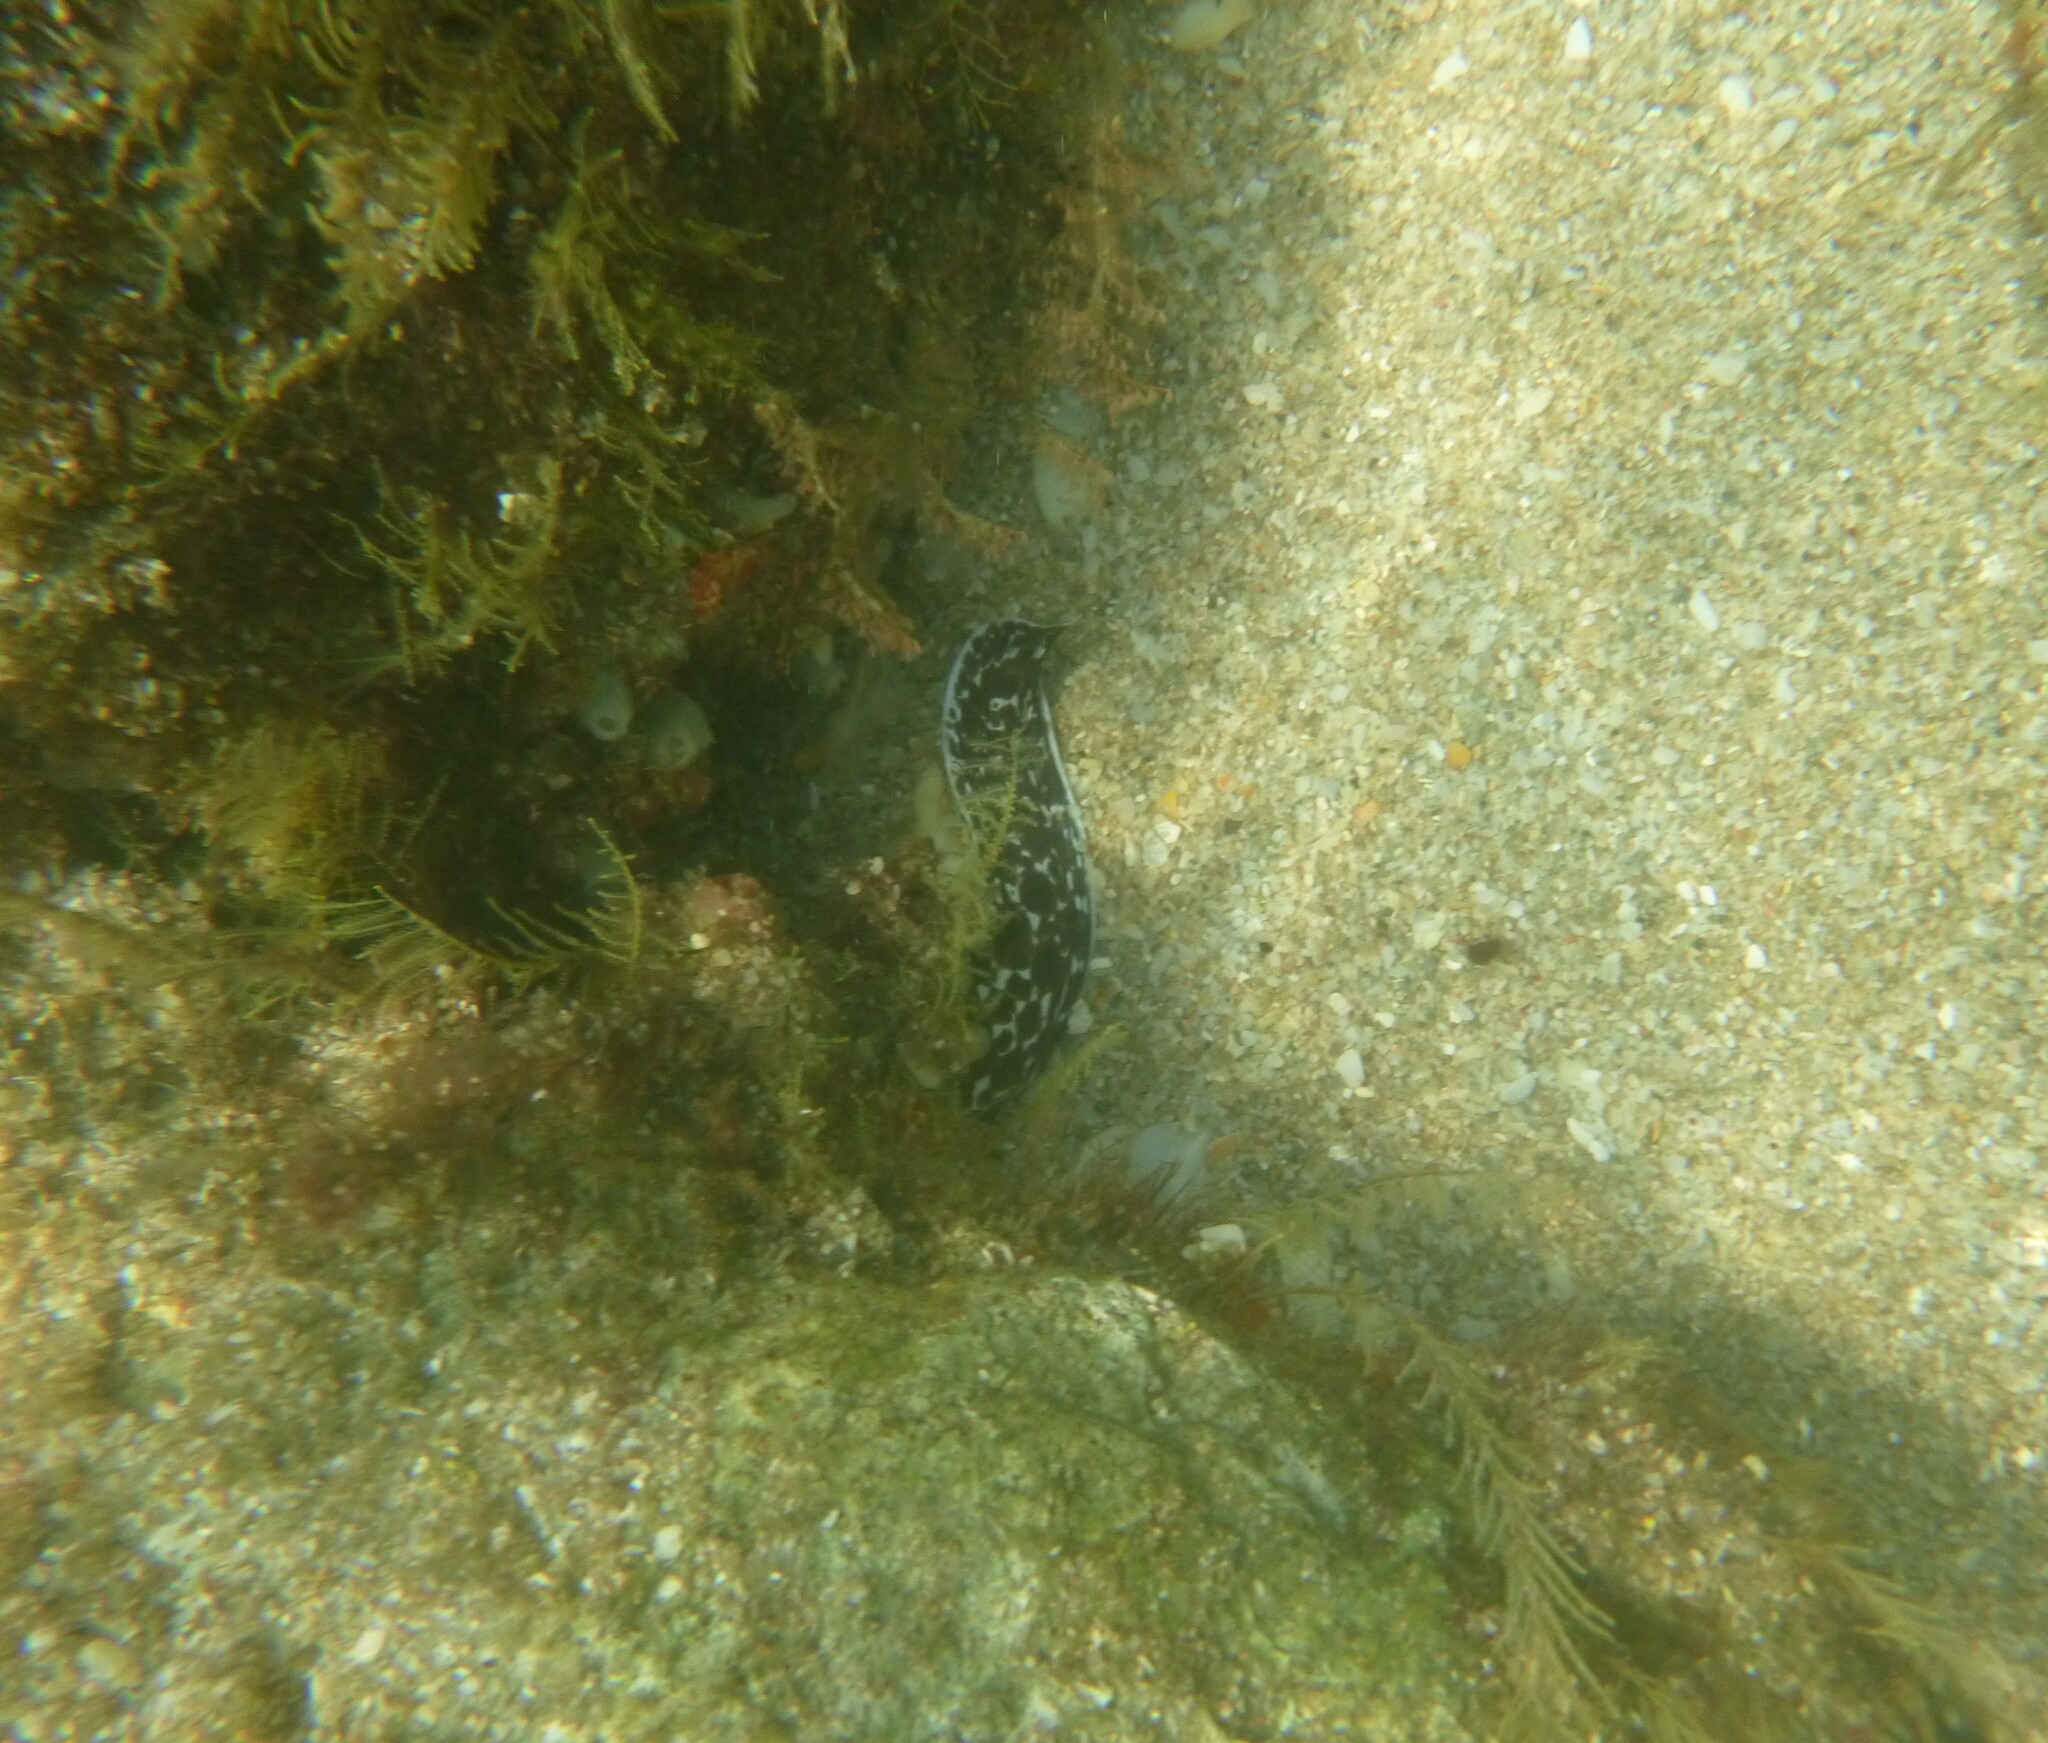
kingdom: Animalia
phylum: Chordata
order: Anguilliformes
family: Muraenidae
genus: Gymnothorax
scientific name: Gymnothorax moringa
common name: Spotted moray
